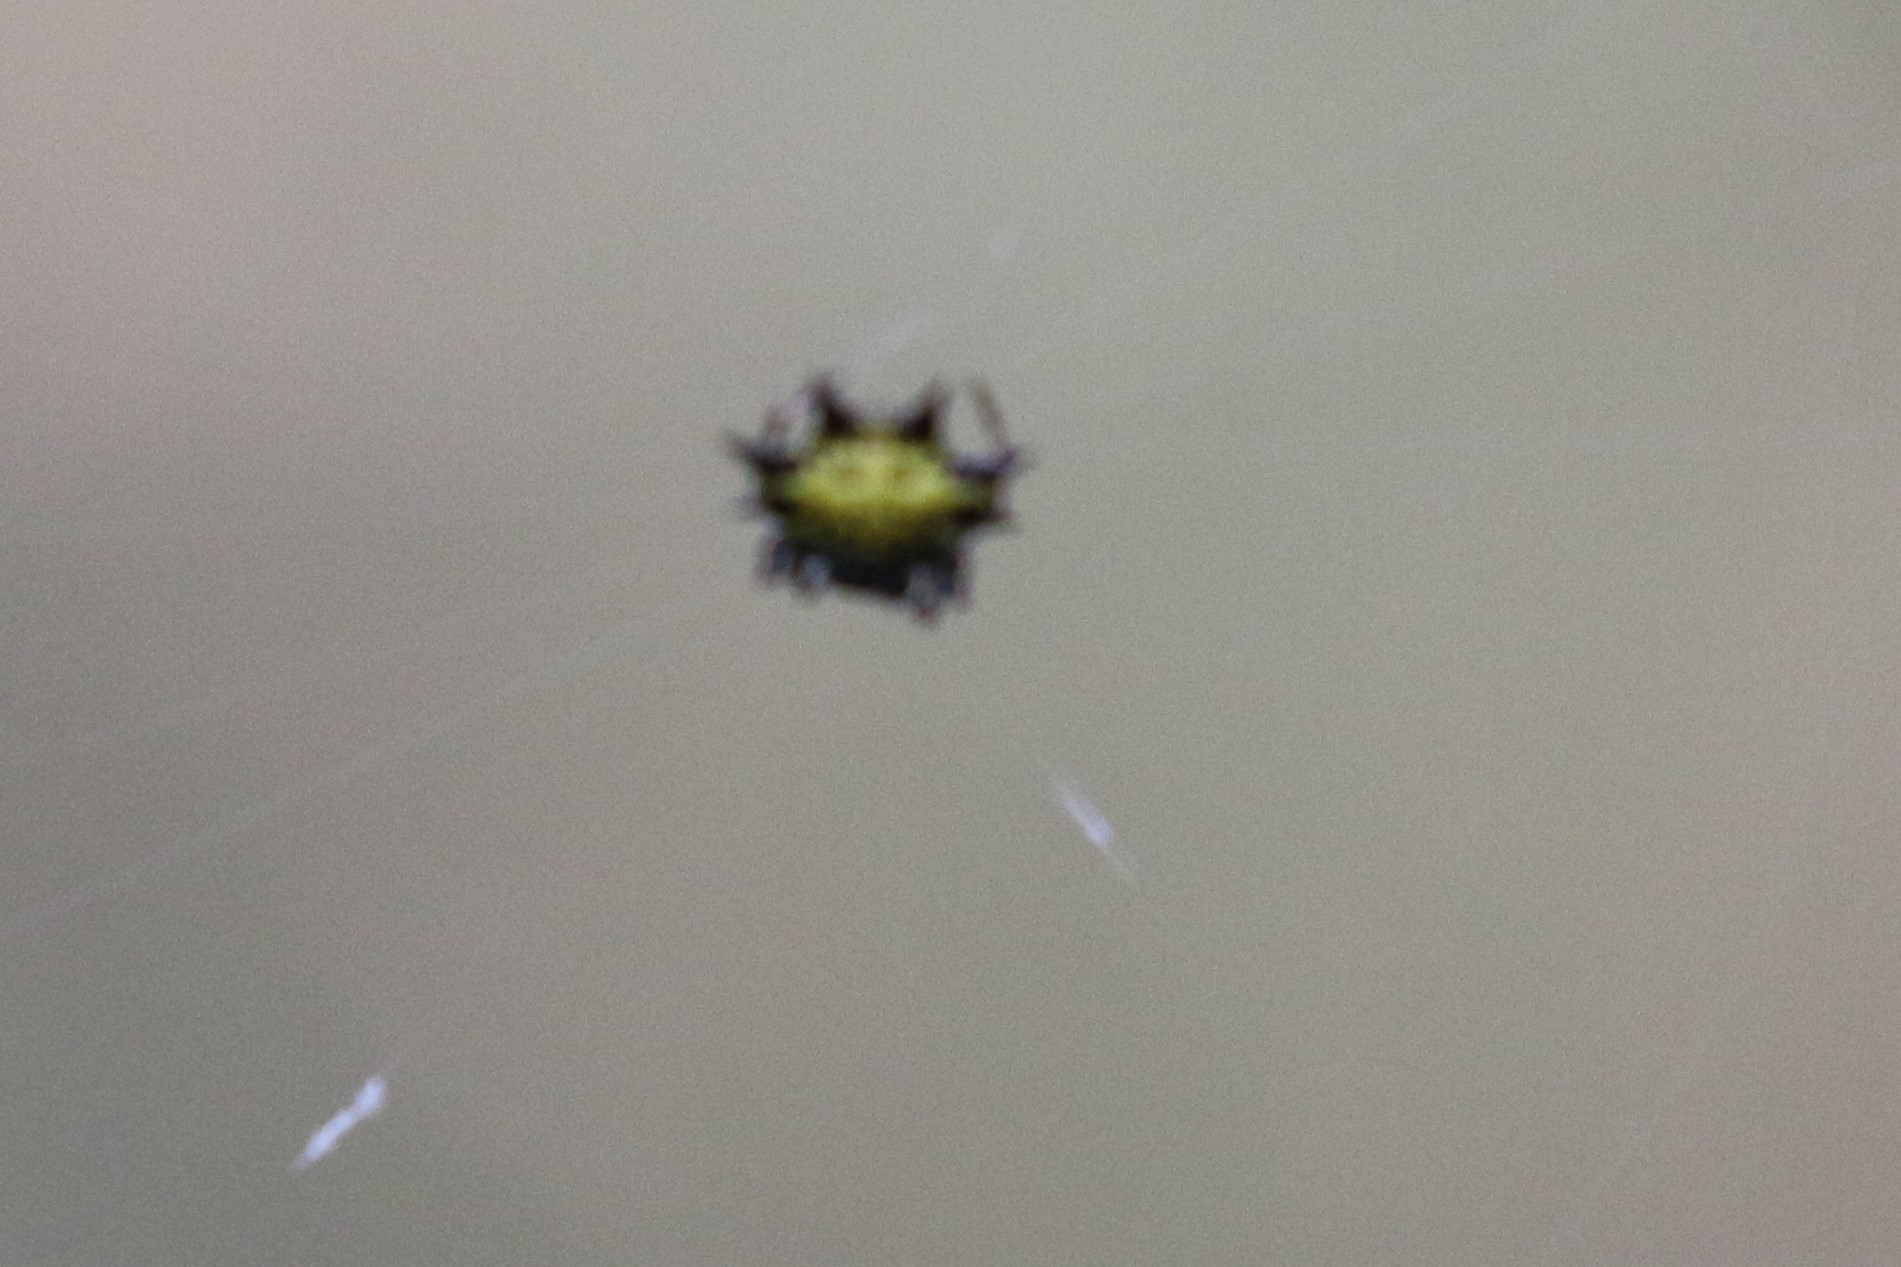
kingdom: Animalia
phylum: Arthropoda
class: Arachnida
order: Araneae
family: Araneidae
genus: Gasteracantha
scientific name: Gasteracantha cancriformis
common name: Orb weavers
